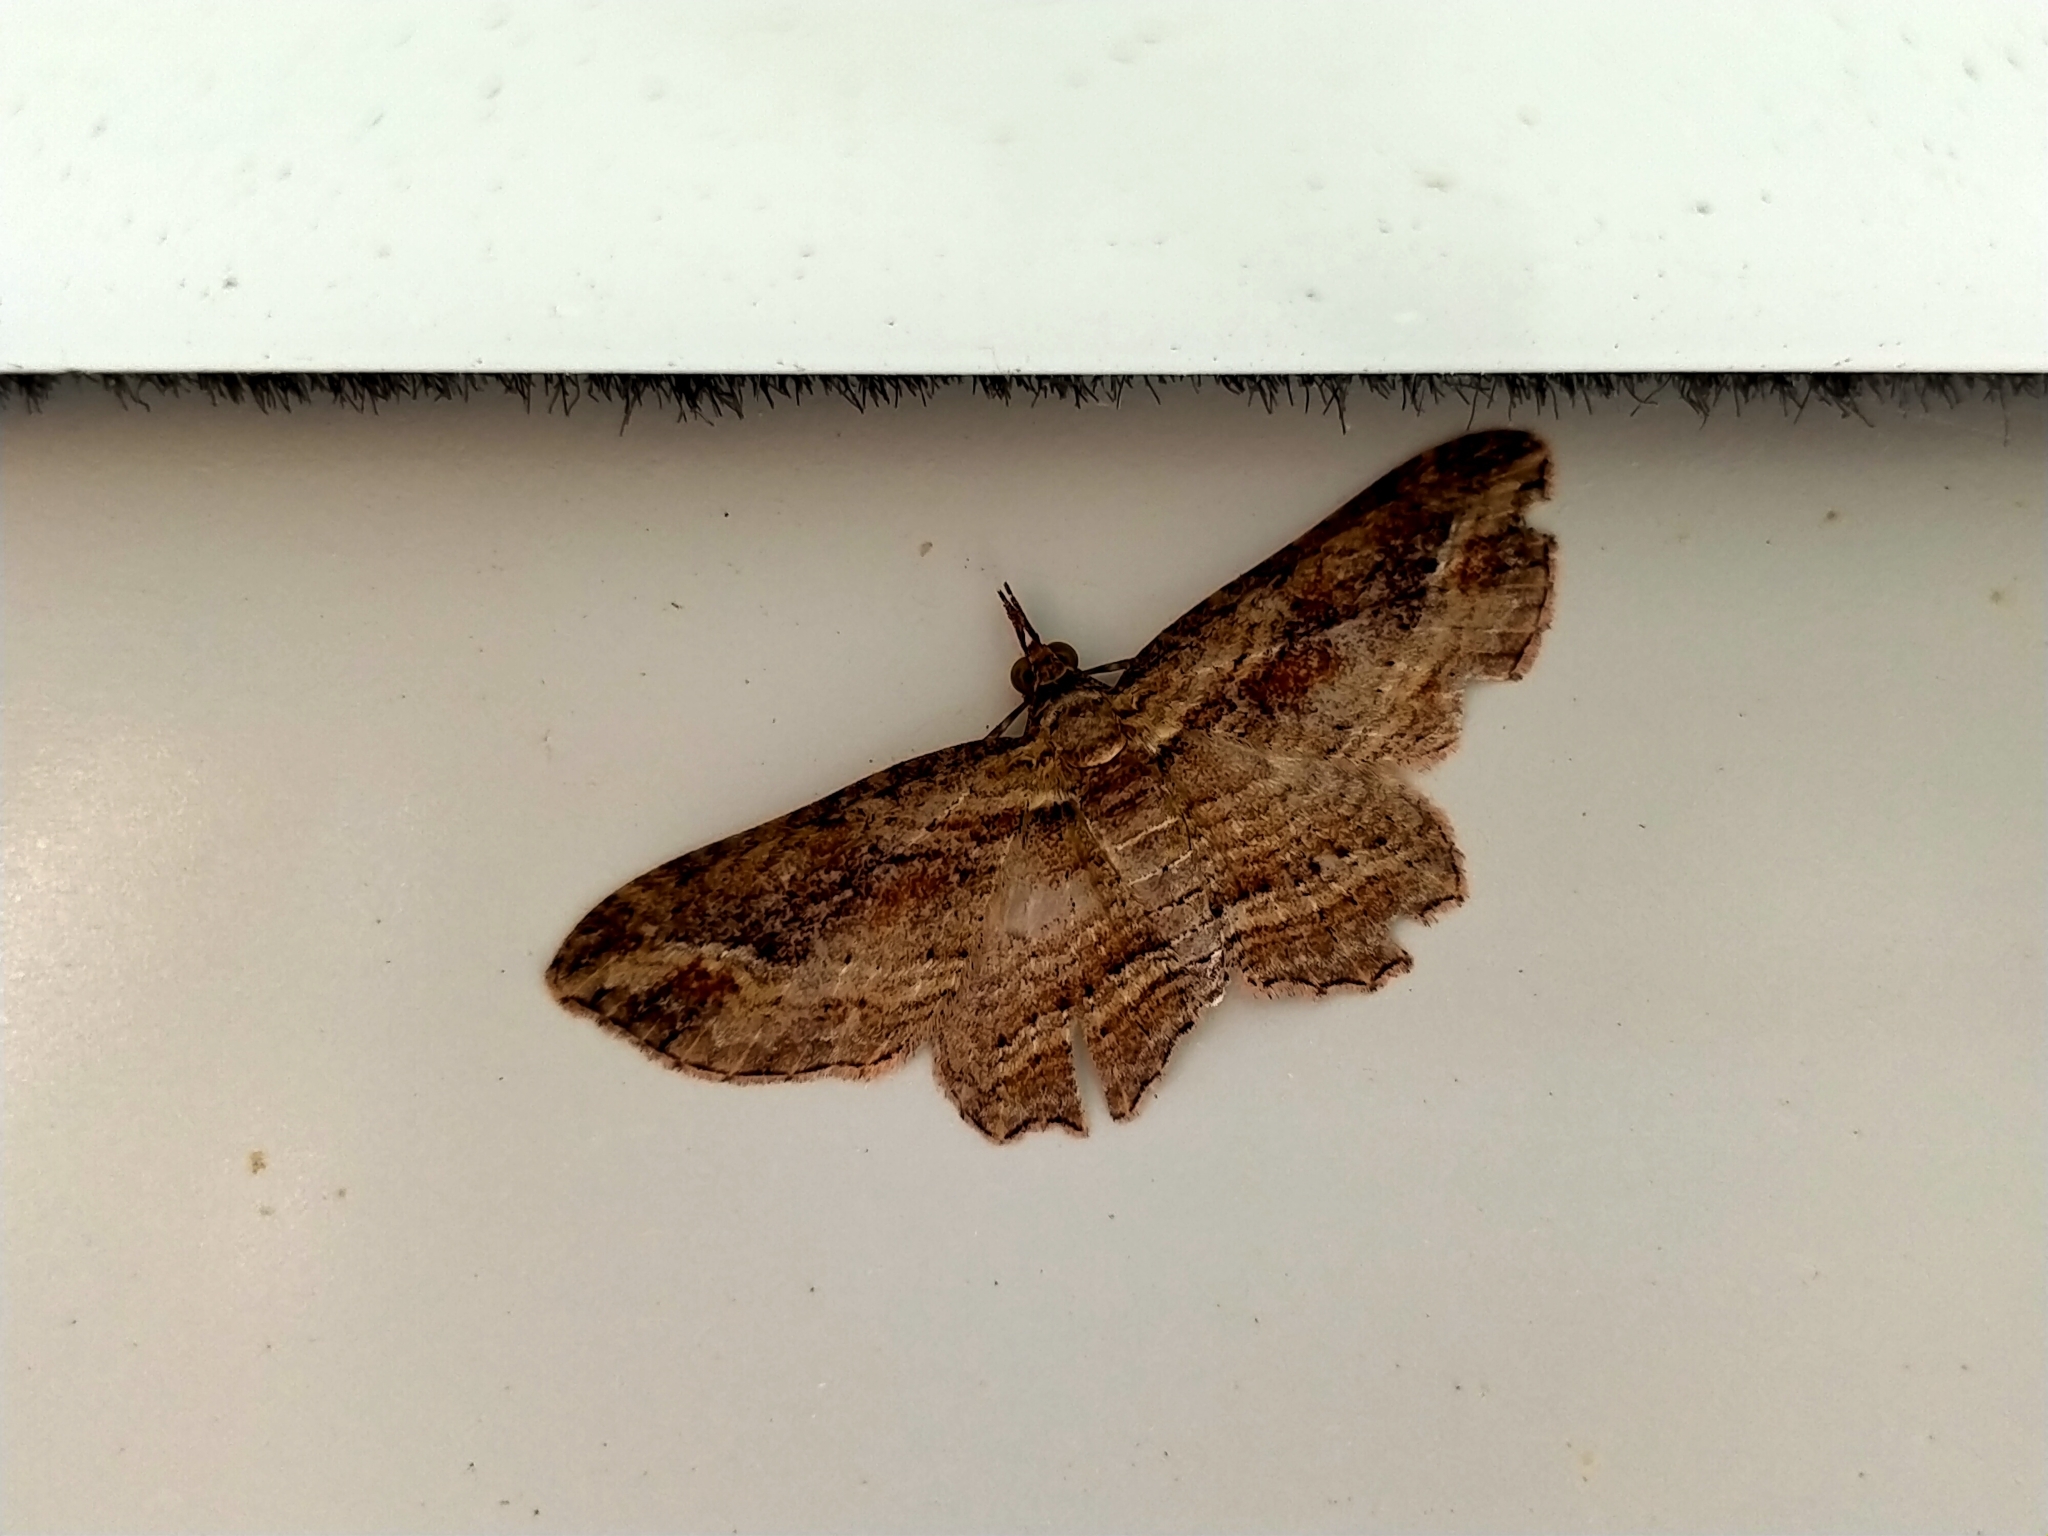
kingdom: Animalia
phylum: Arthropoda
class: Insecta
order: Lepidoptera
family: Geometridae
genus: Chloroclystis
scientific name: Chloroclystis filata
